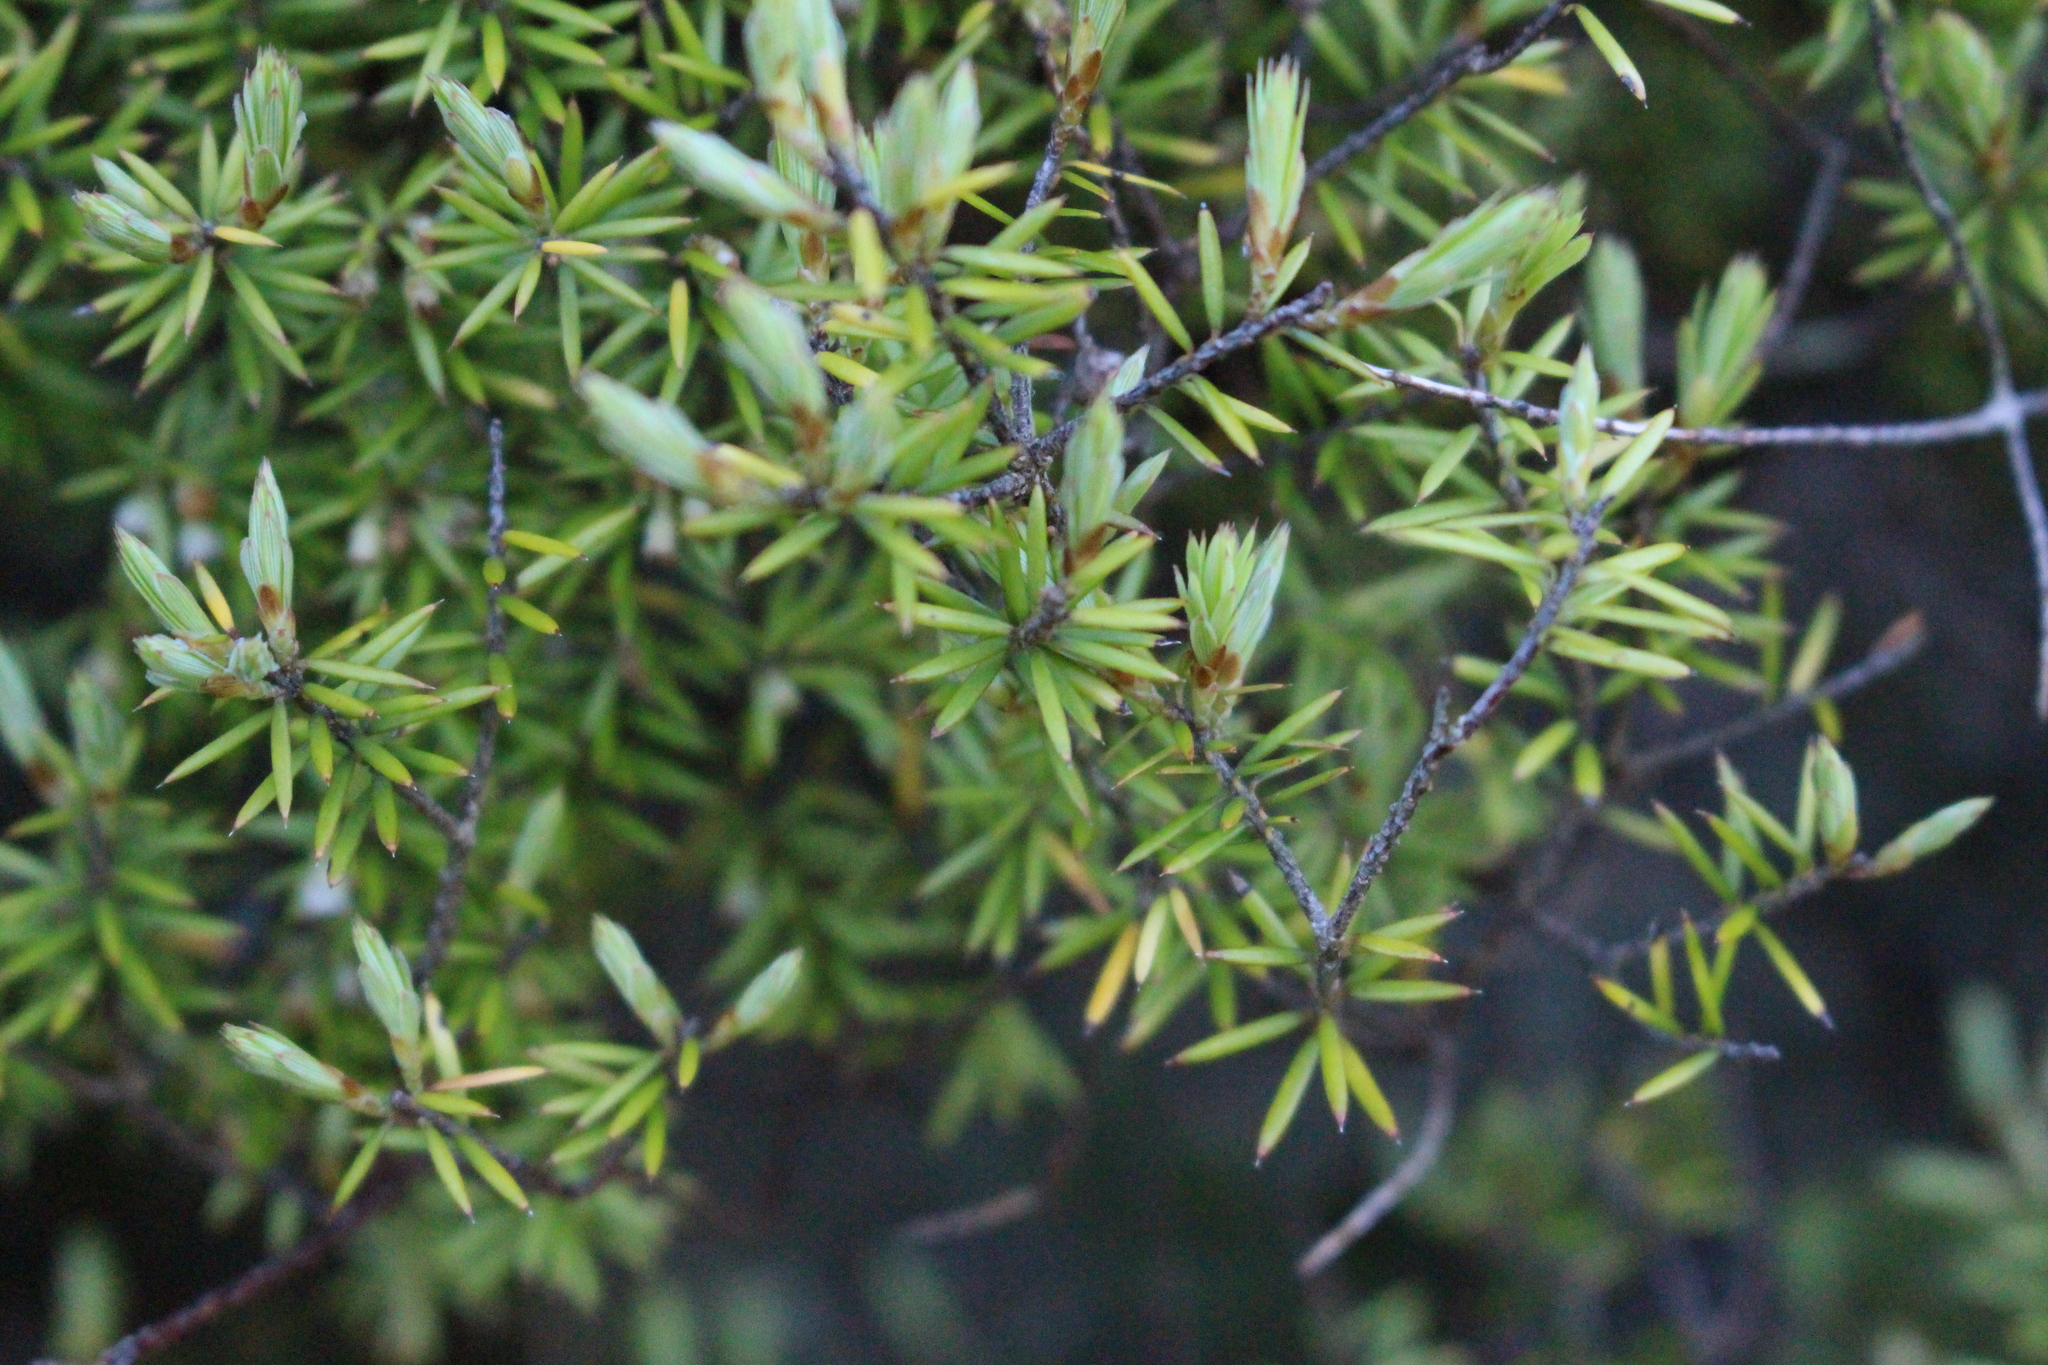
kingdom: Plantae
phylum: Tracheophyta
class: Magnoliopsida
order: Ericales
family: Ericaceae
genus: Leptecophylla
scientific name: Leptecophylla juniperina
